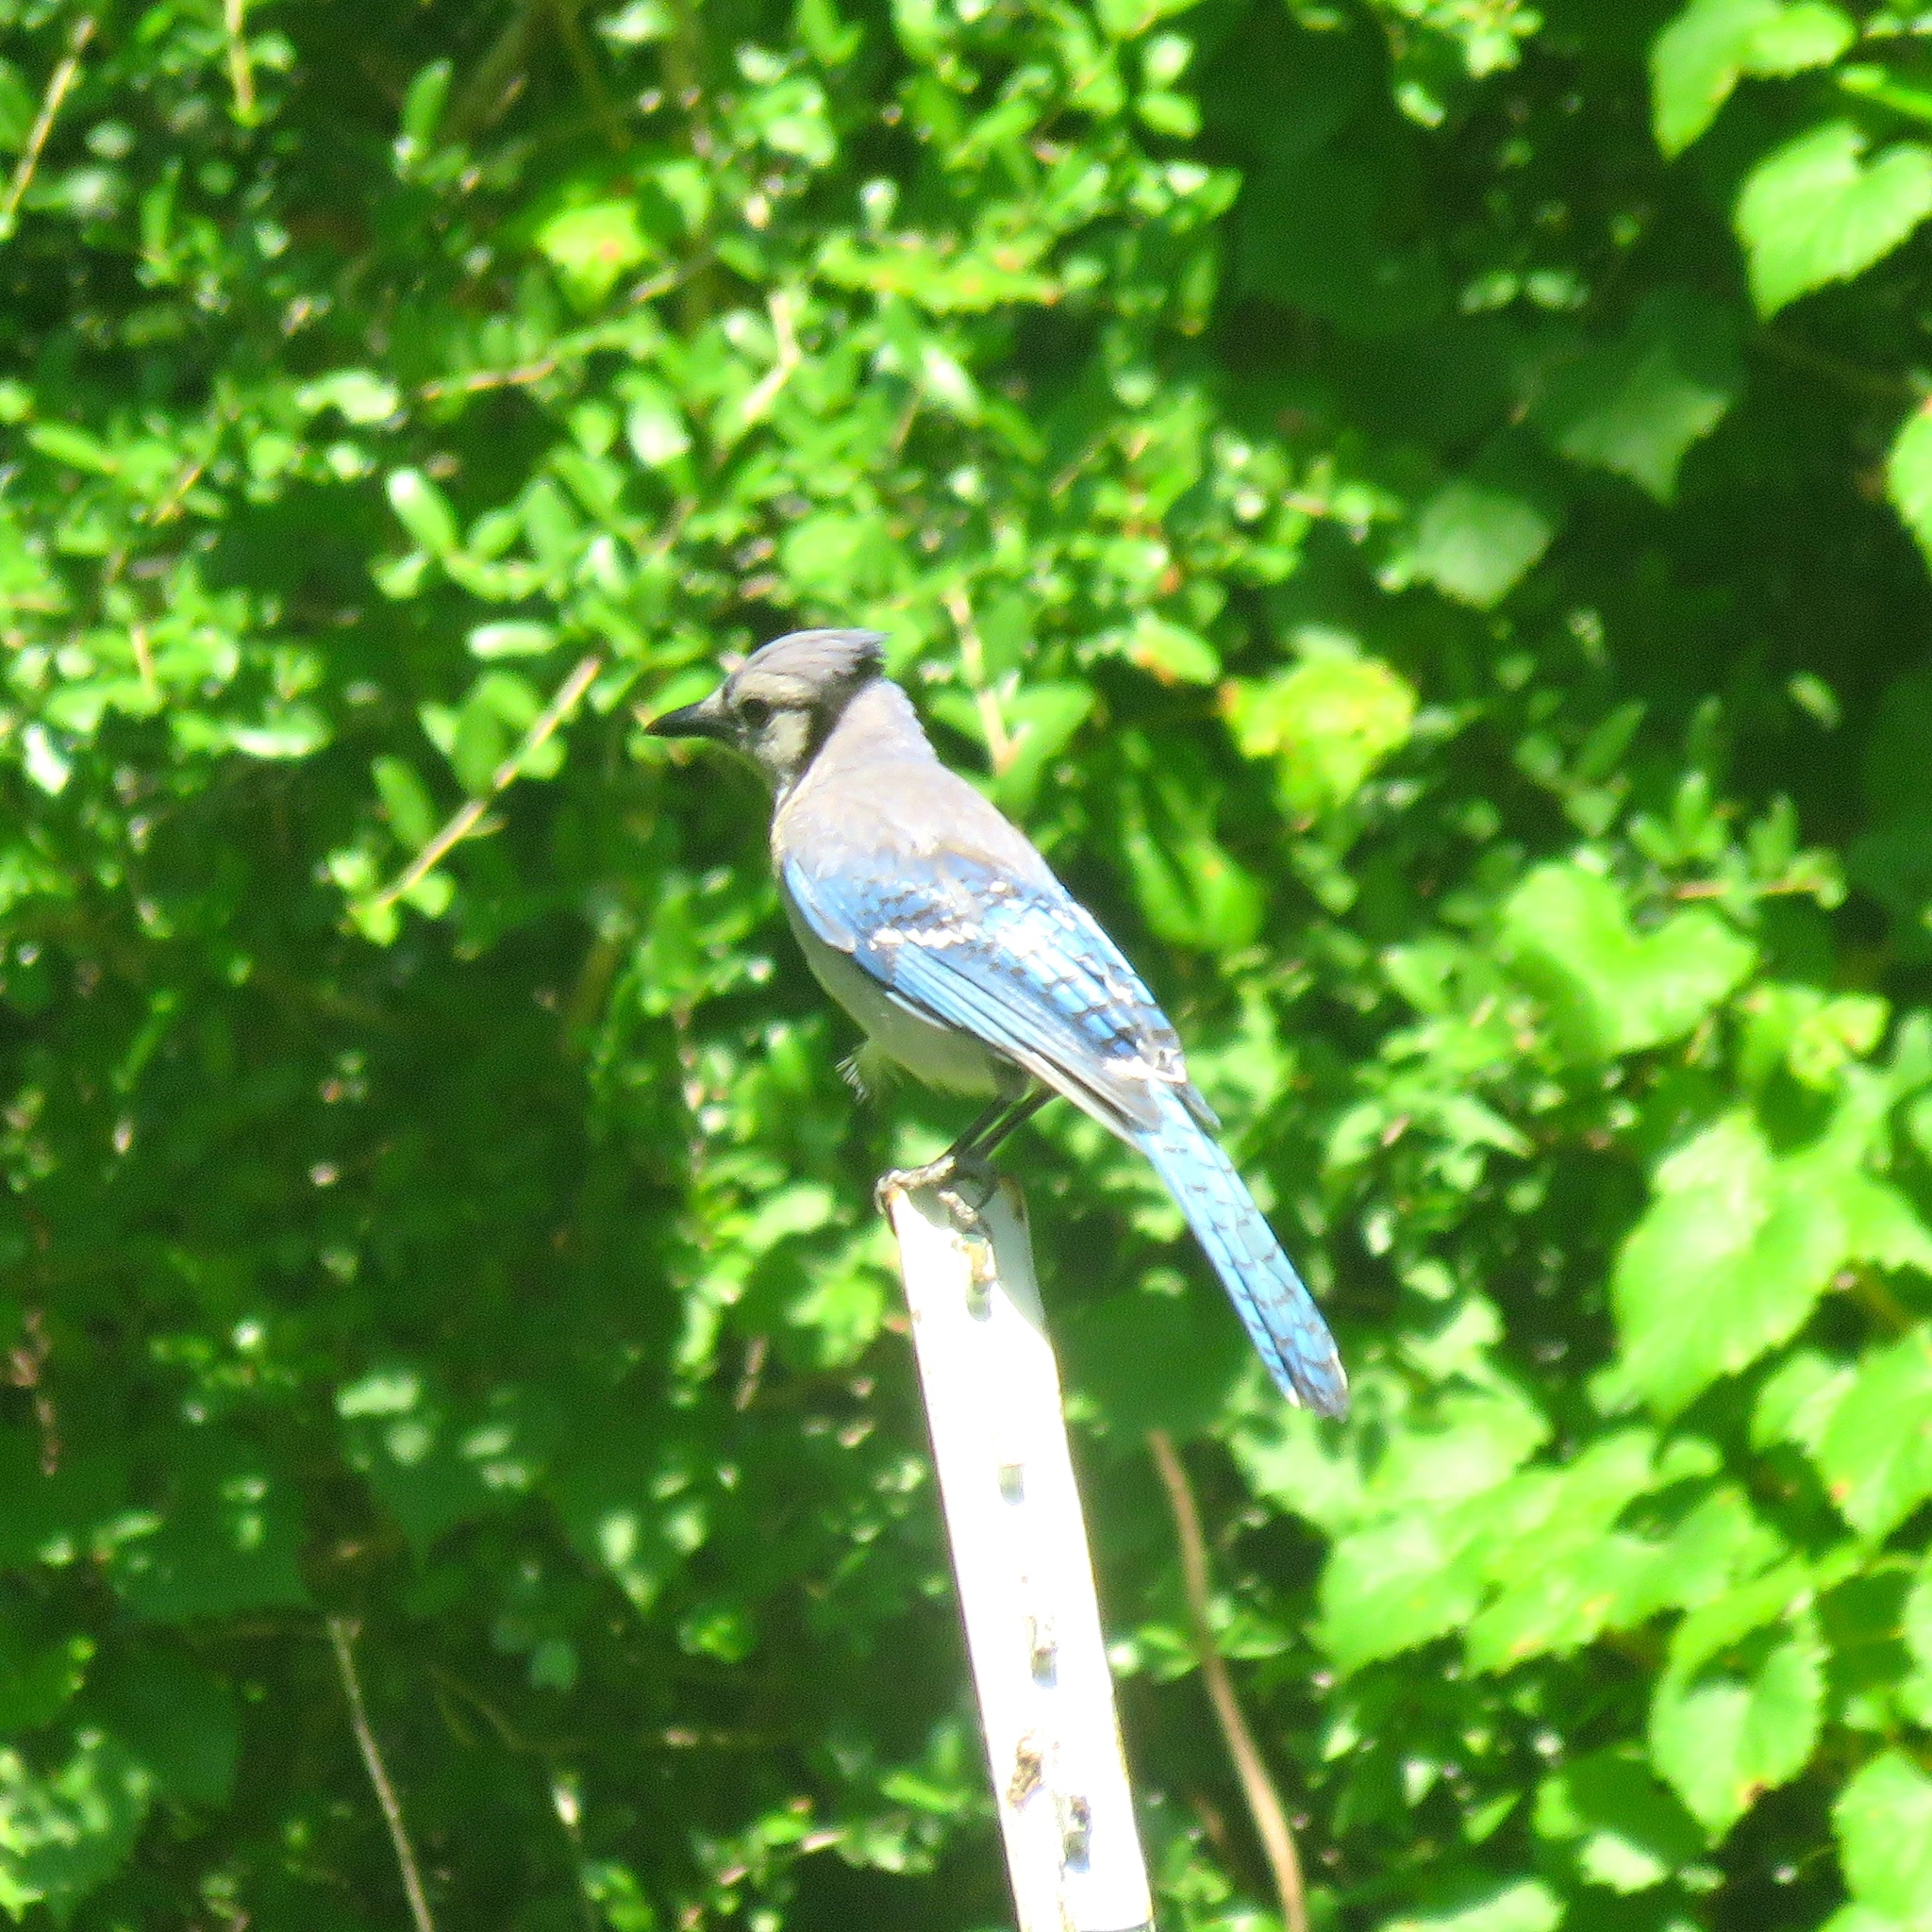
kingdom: Animalia
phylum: Chordata
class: Aves
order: Passeriformes
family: Corvidae
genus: Cyanocitta
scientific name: Cyanocitta cristata
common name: Blue jay
